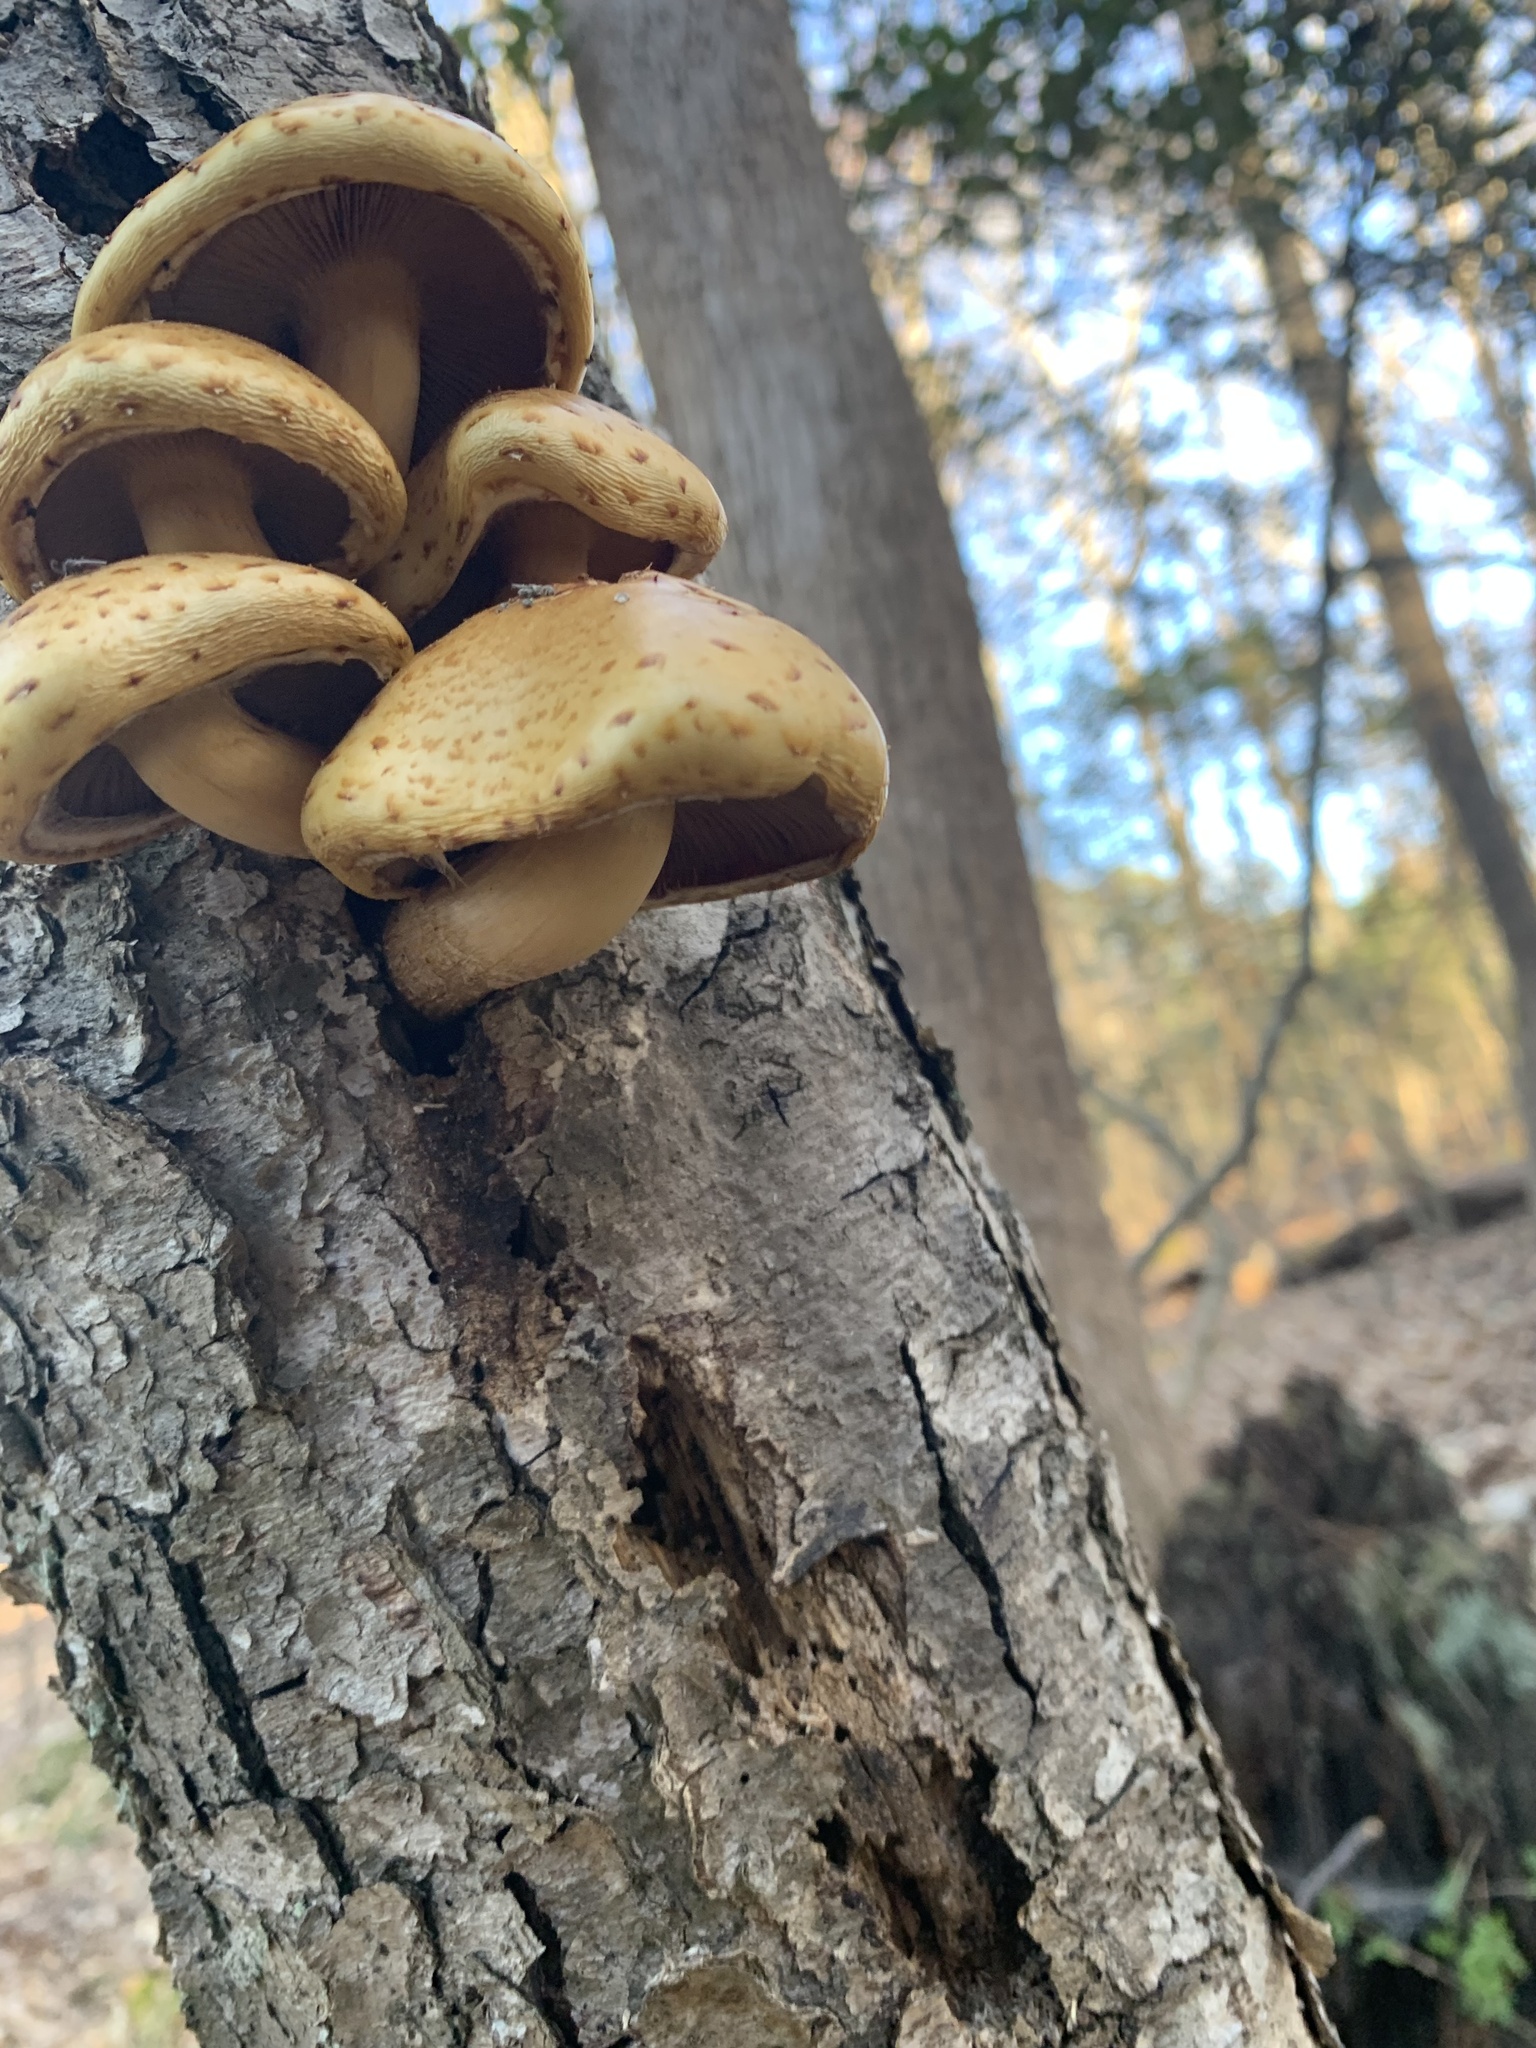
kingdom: Fungi
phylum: Basidiomycota
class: Agaricomycetes
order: Agaricales
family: Strophariaceae
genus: Pholiota
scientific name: Pholiota aurivella
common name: Golden scalycap
